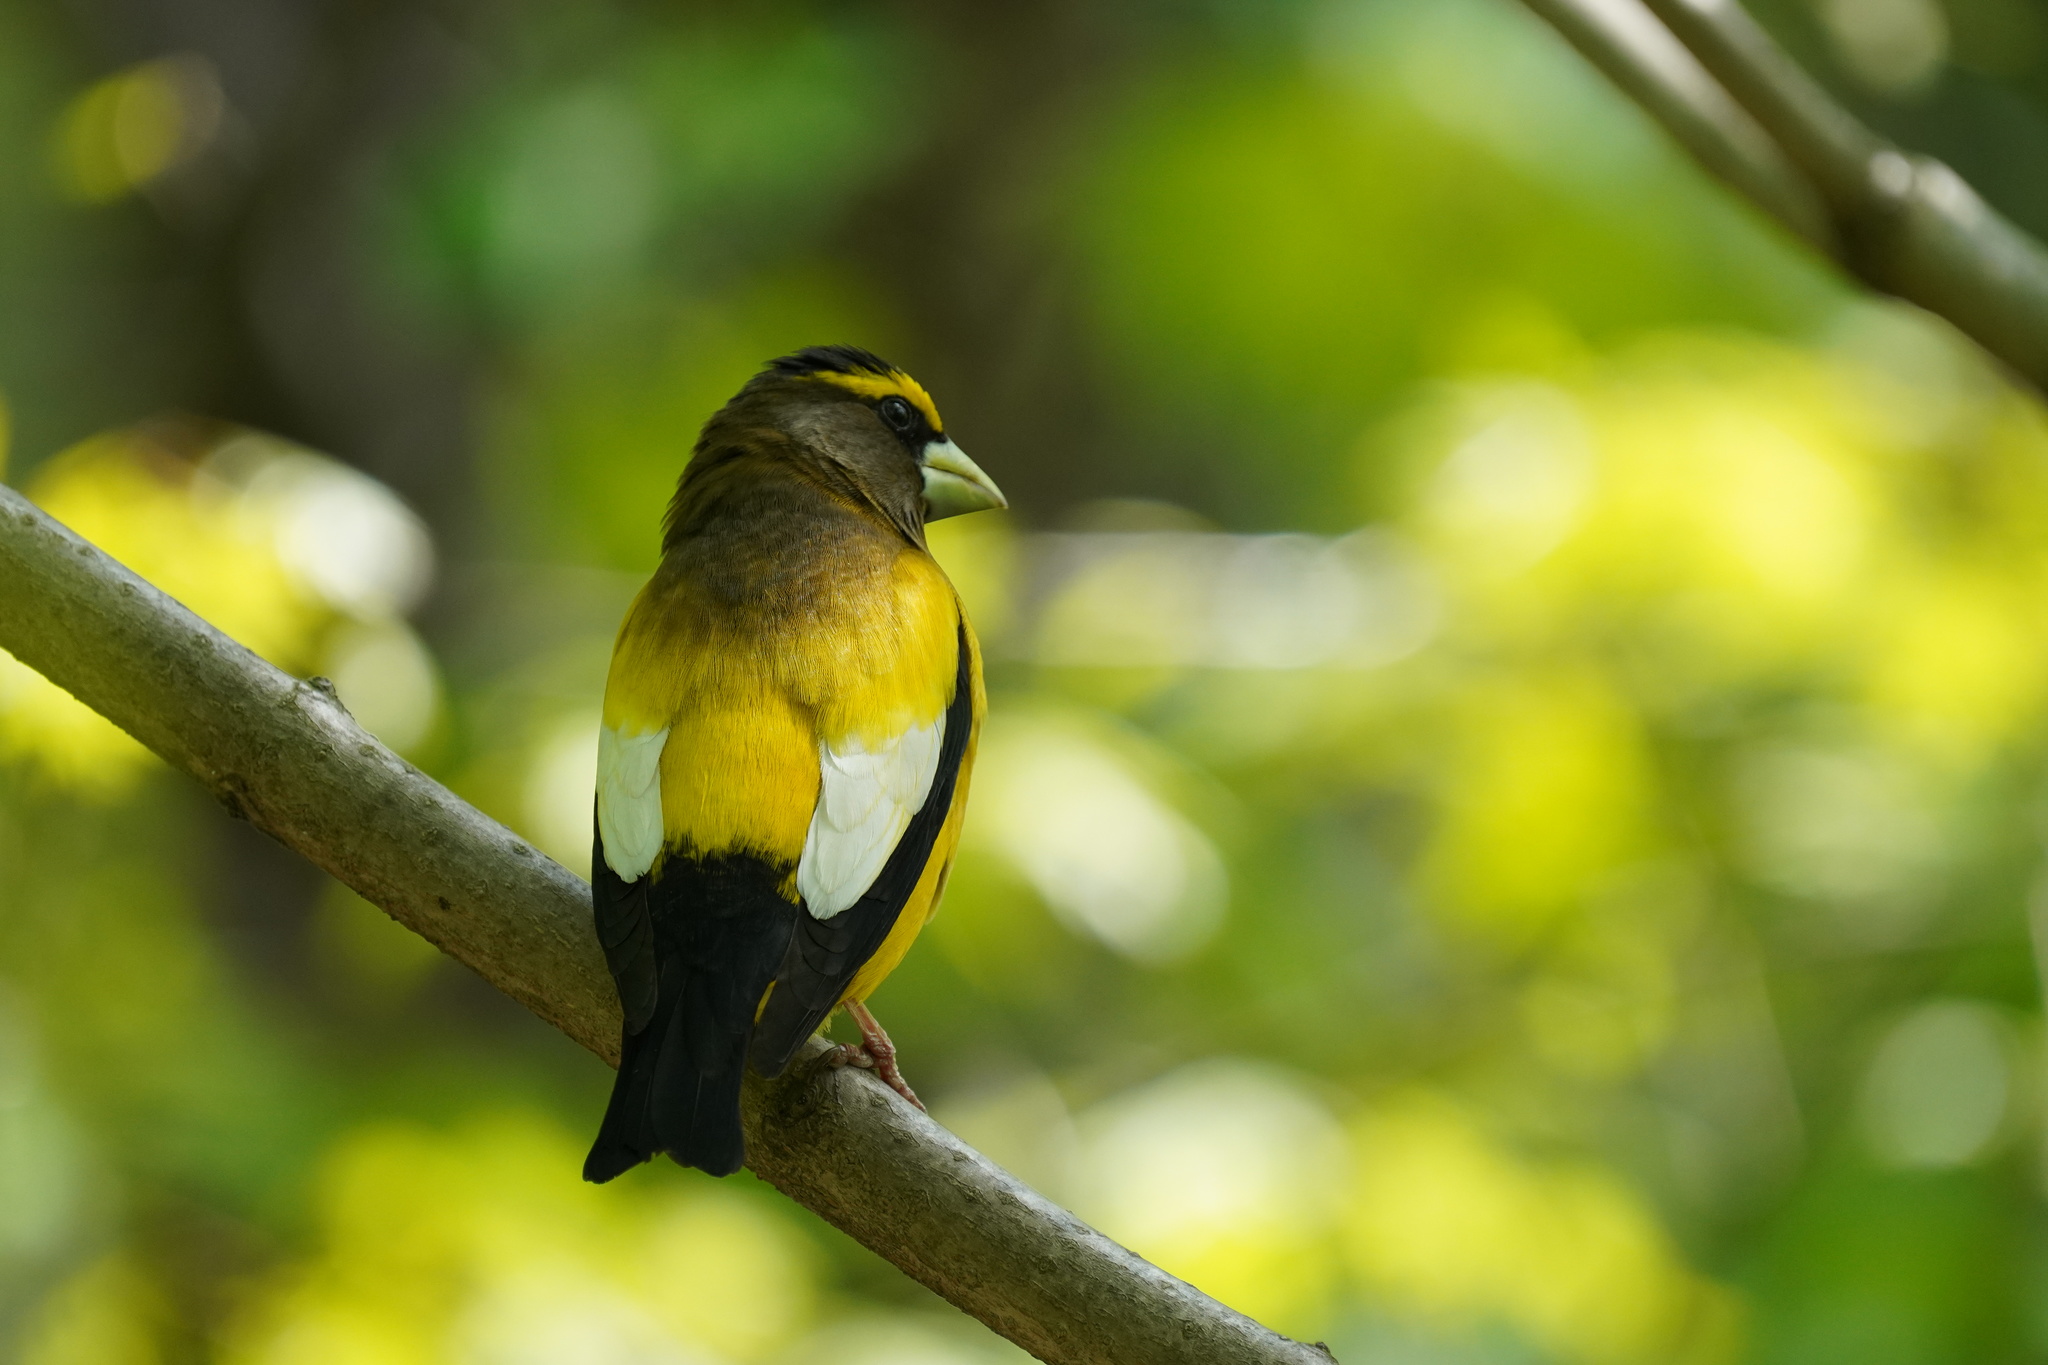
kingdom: Animalia
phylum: Chordata
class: Aves
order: Passeriformes
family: Fringillidae
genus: Hesperiphona
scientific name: Hesperiphona vespertina
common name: Evening grosbeak
